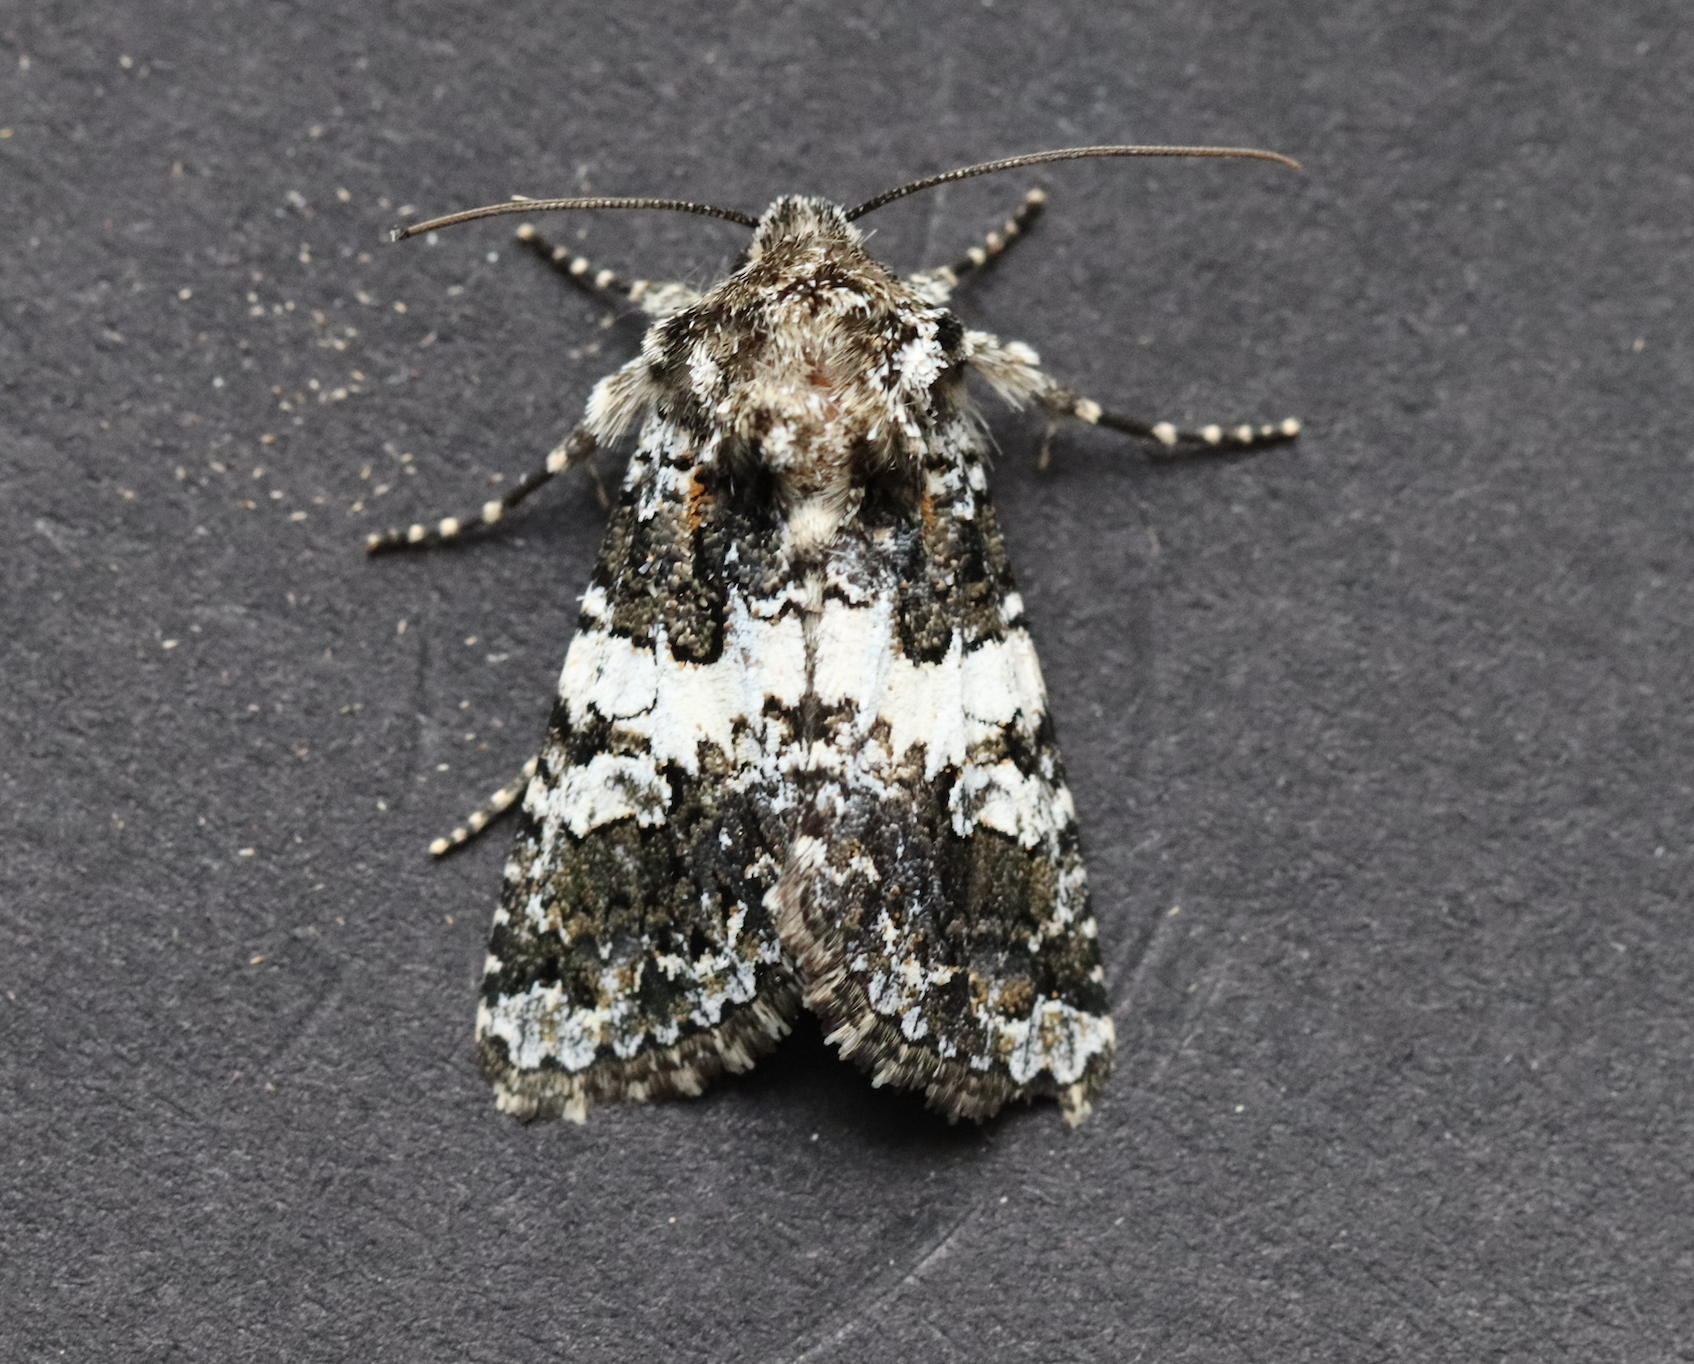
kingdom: Animalia
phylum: Arthropoda
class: Insecta
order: Lepidoptera
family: Noctuidae
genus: Hadena
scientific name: Hadena compta
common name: Varied coronet
